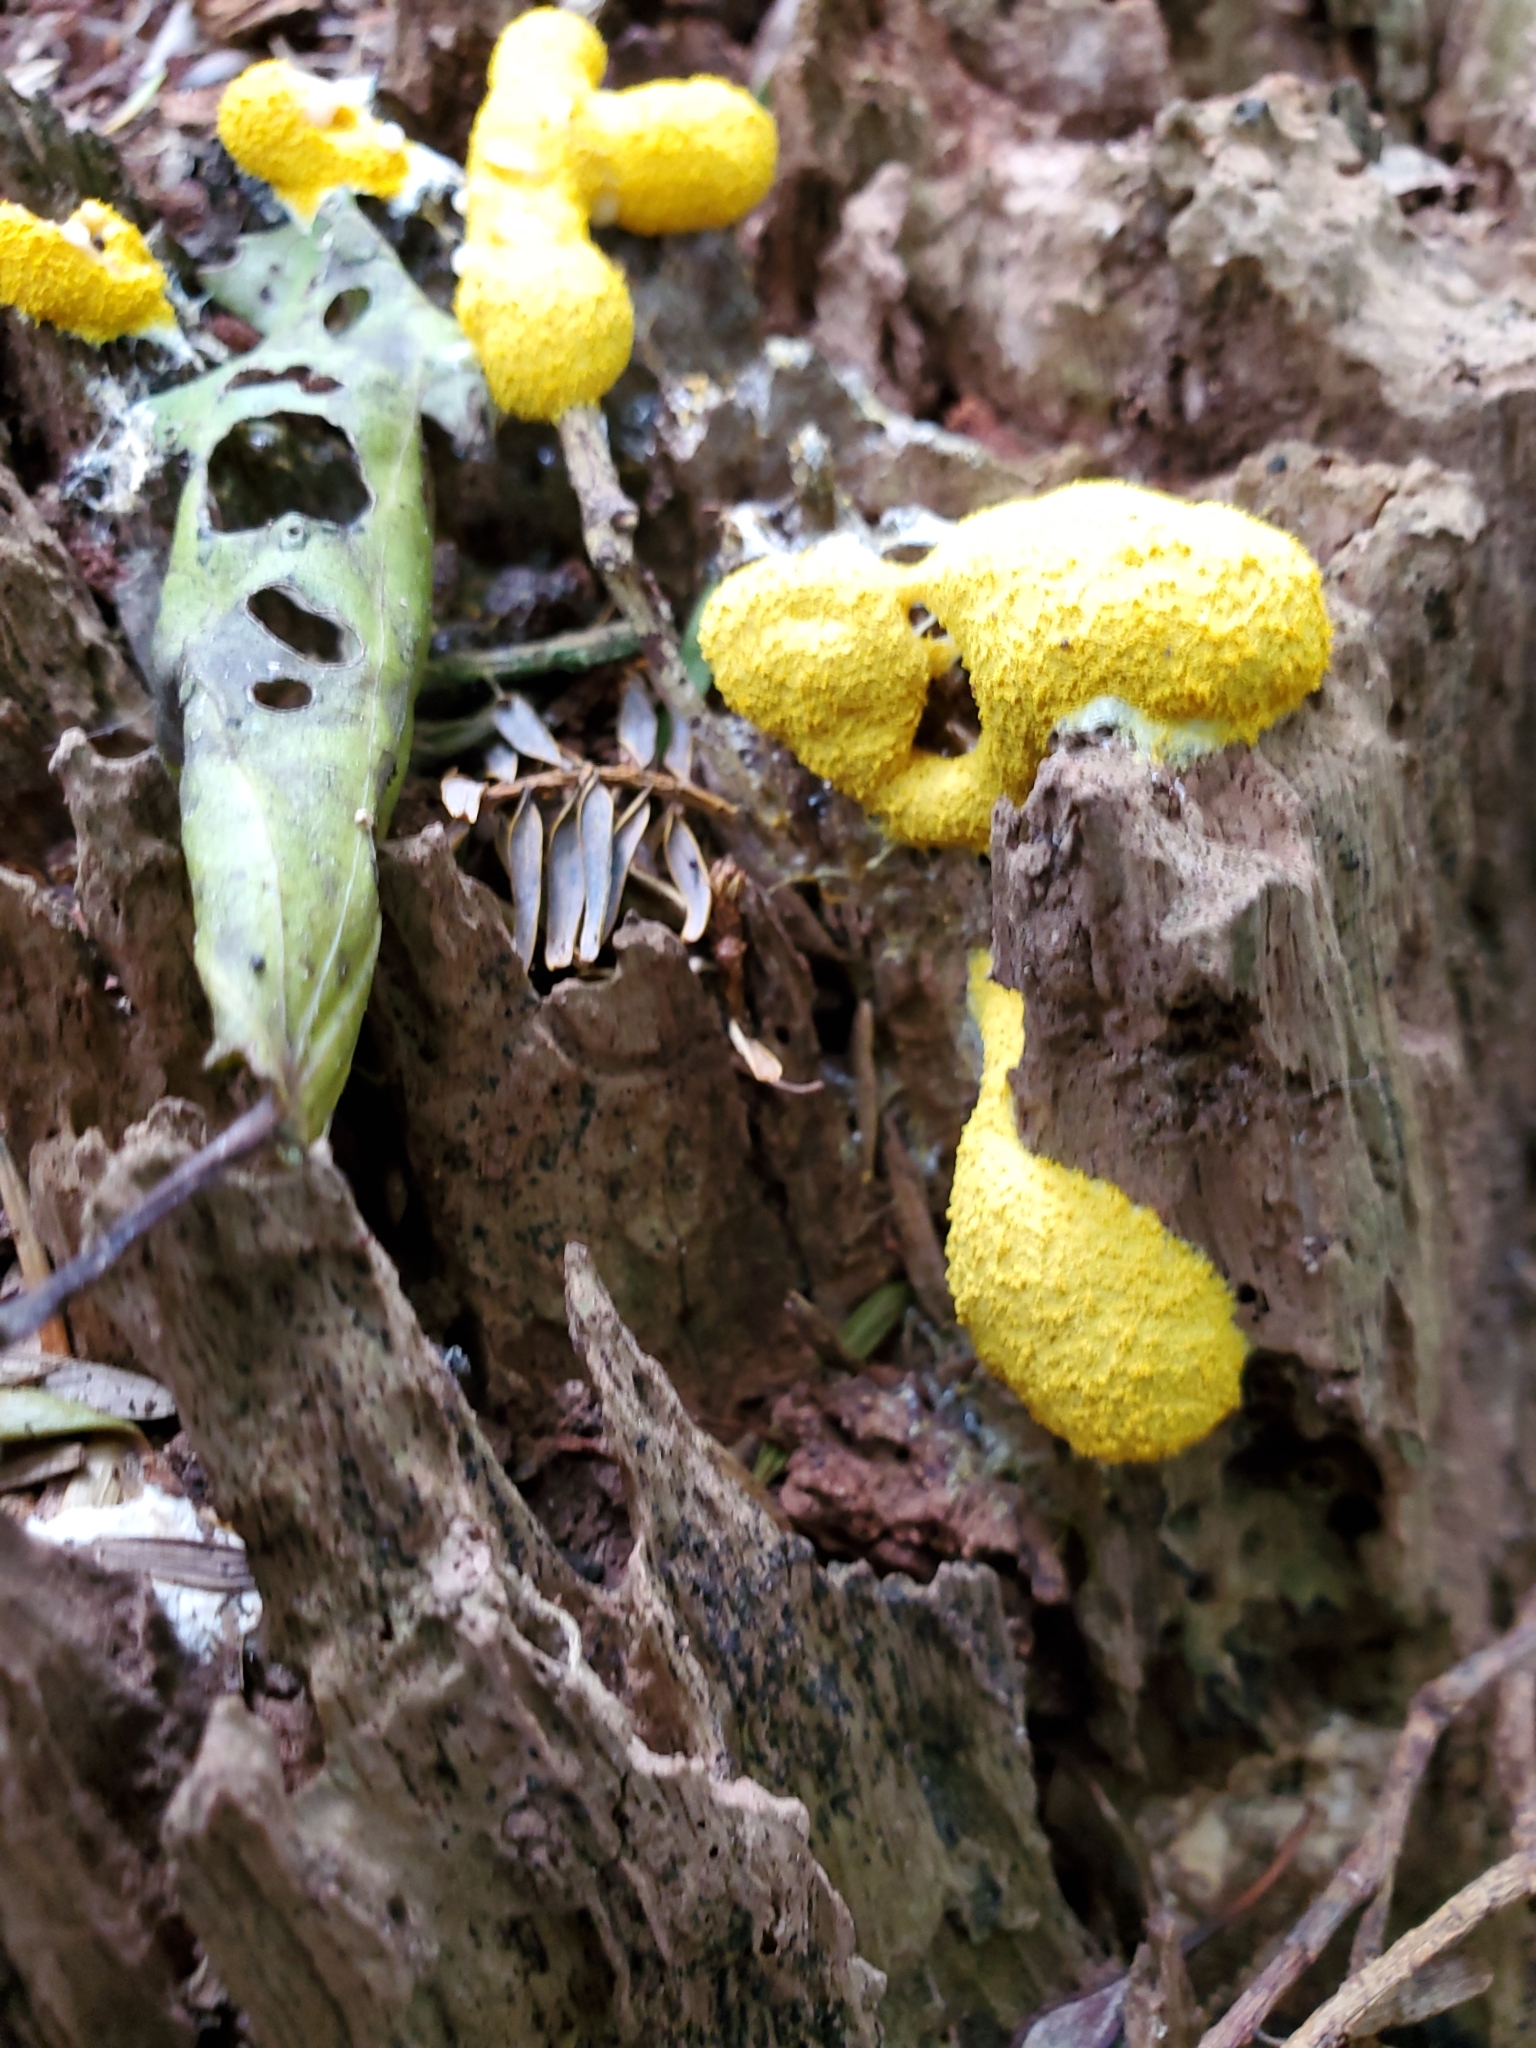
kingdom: Protozoa
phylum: Mycetozoa
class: Myxomycetes
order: Physarales
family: Physaraceae
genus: Fuligo
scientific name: Fuligo septica
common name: Dog vomit slime mold
